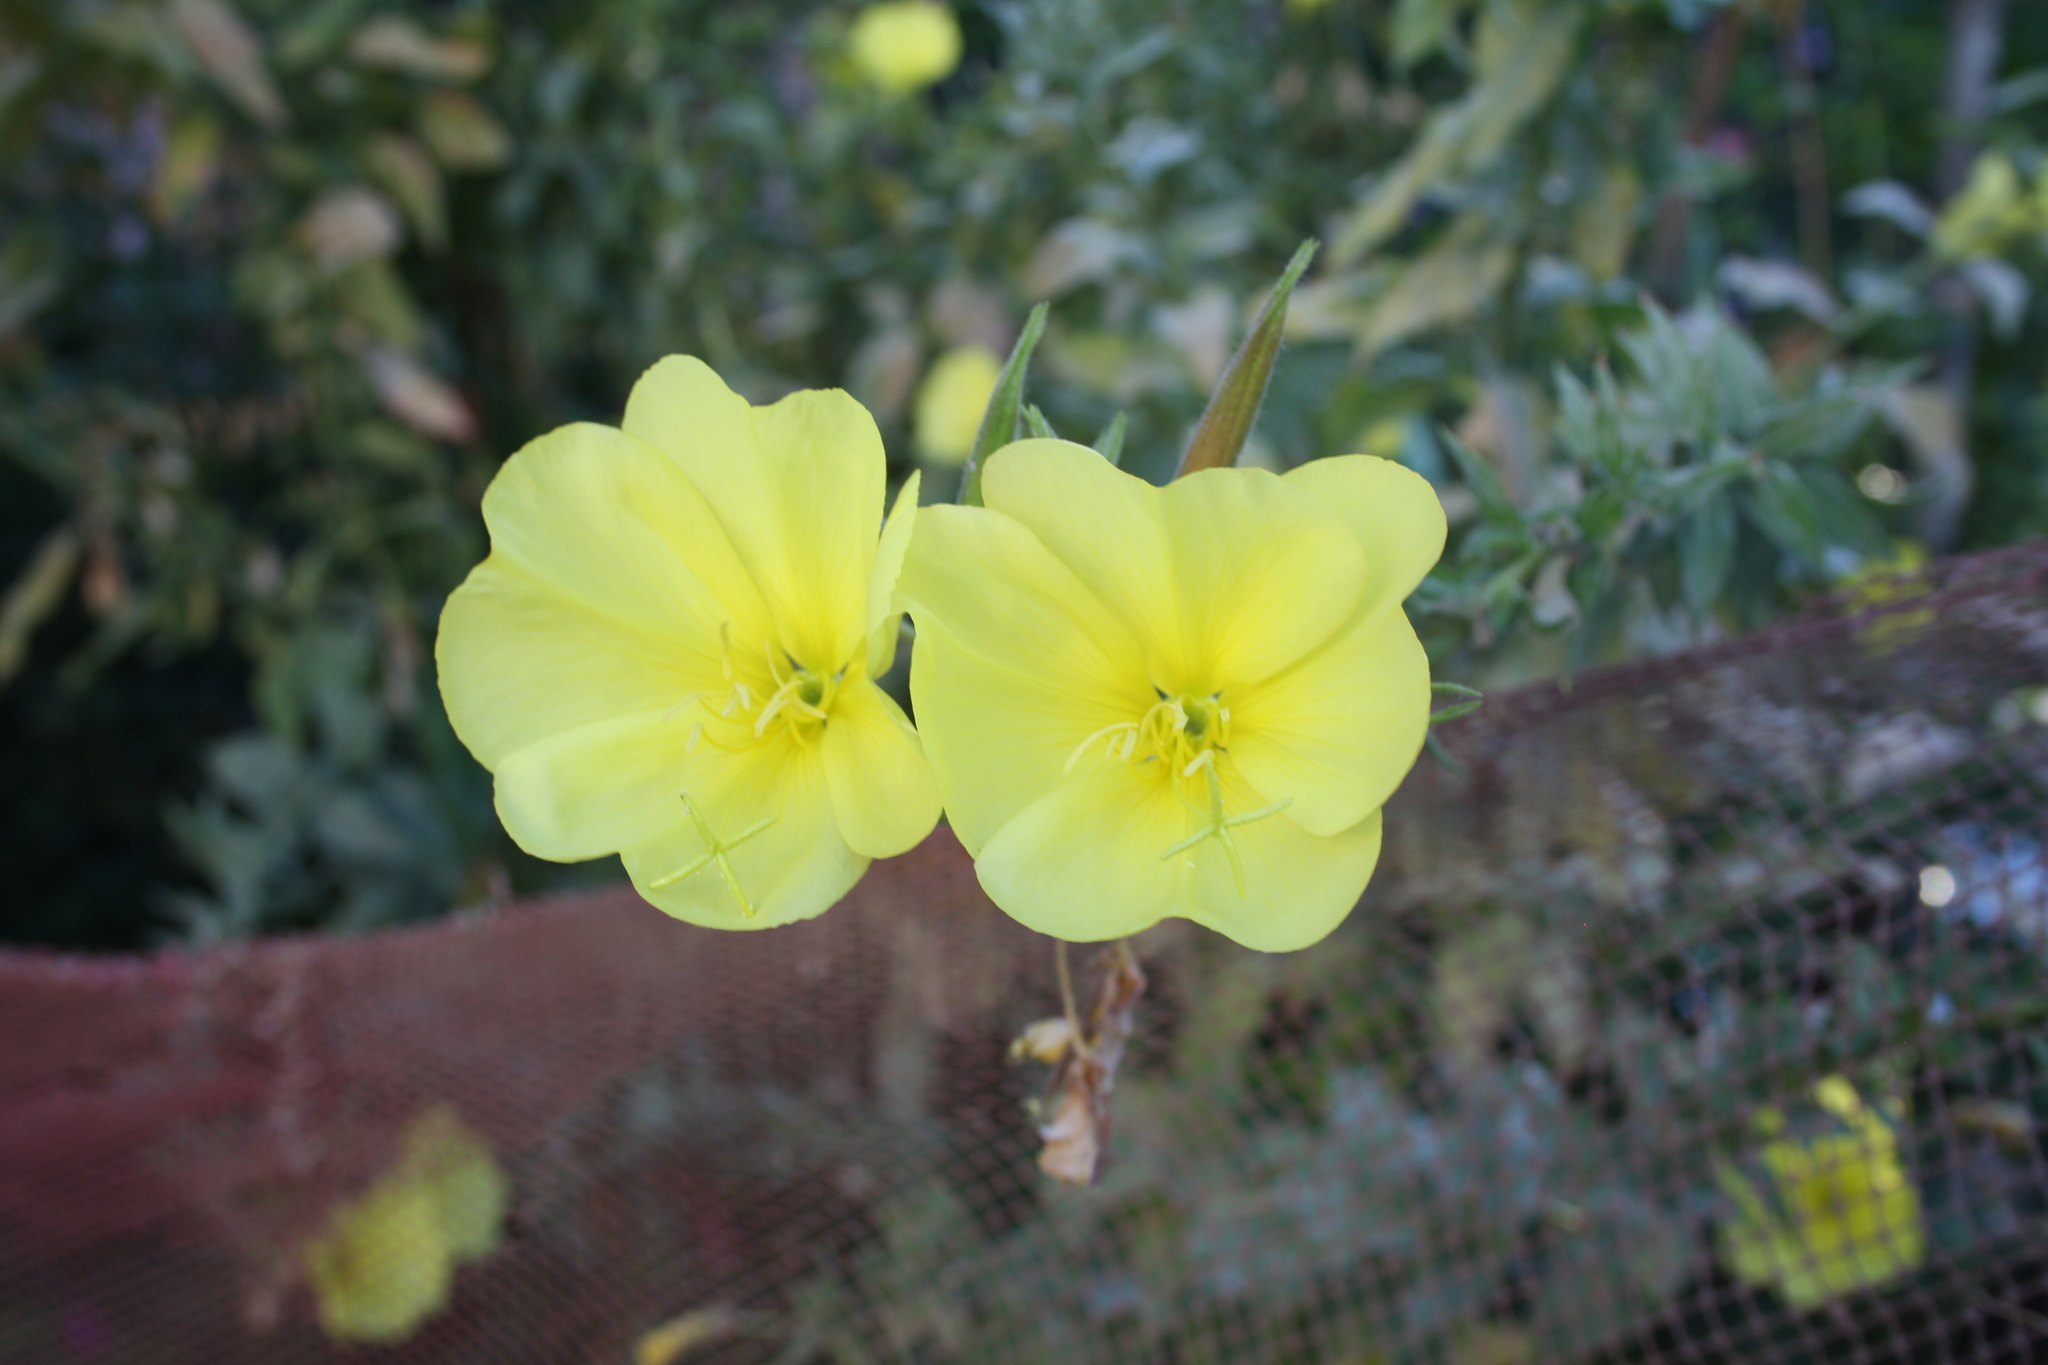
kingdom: Plantae
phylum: Tracheophyta
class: Magnoliopsida
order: Oxalidales
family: Oxalidaceae
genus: Oxalis
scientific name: Oxalis pes-caprae
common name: Bermuda-buttercup
